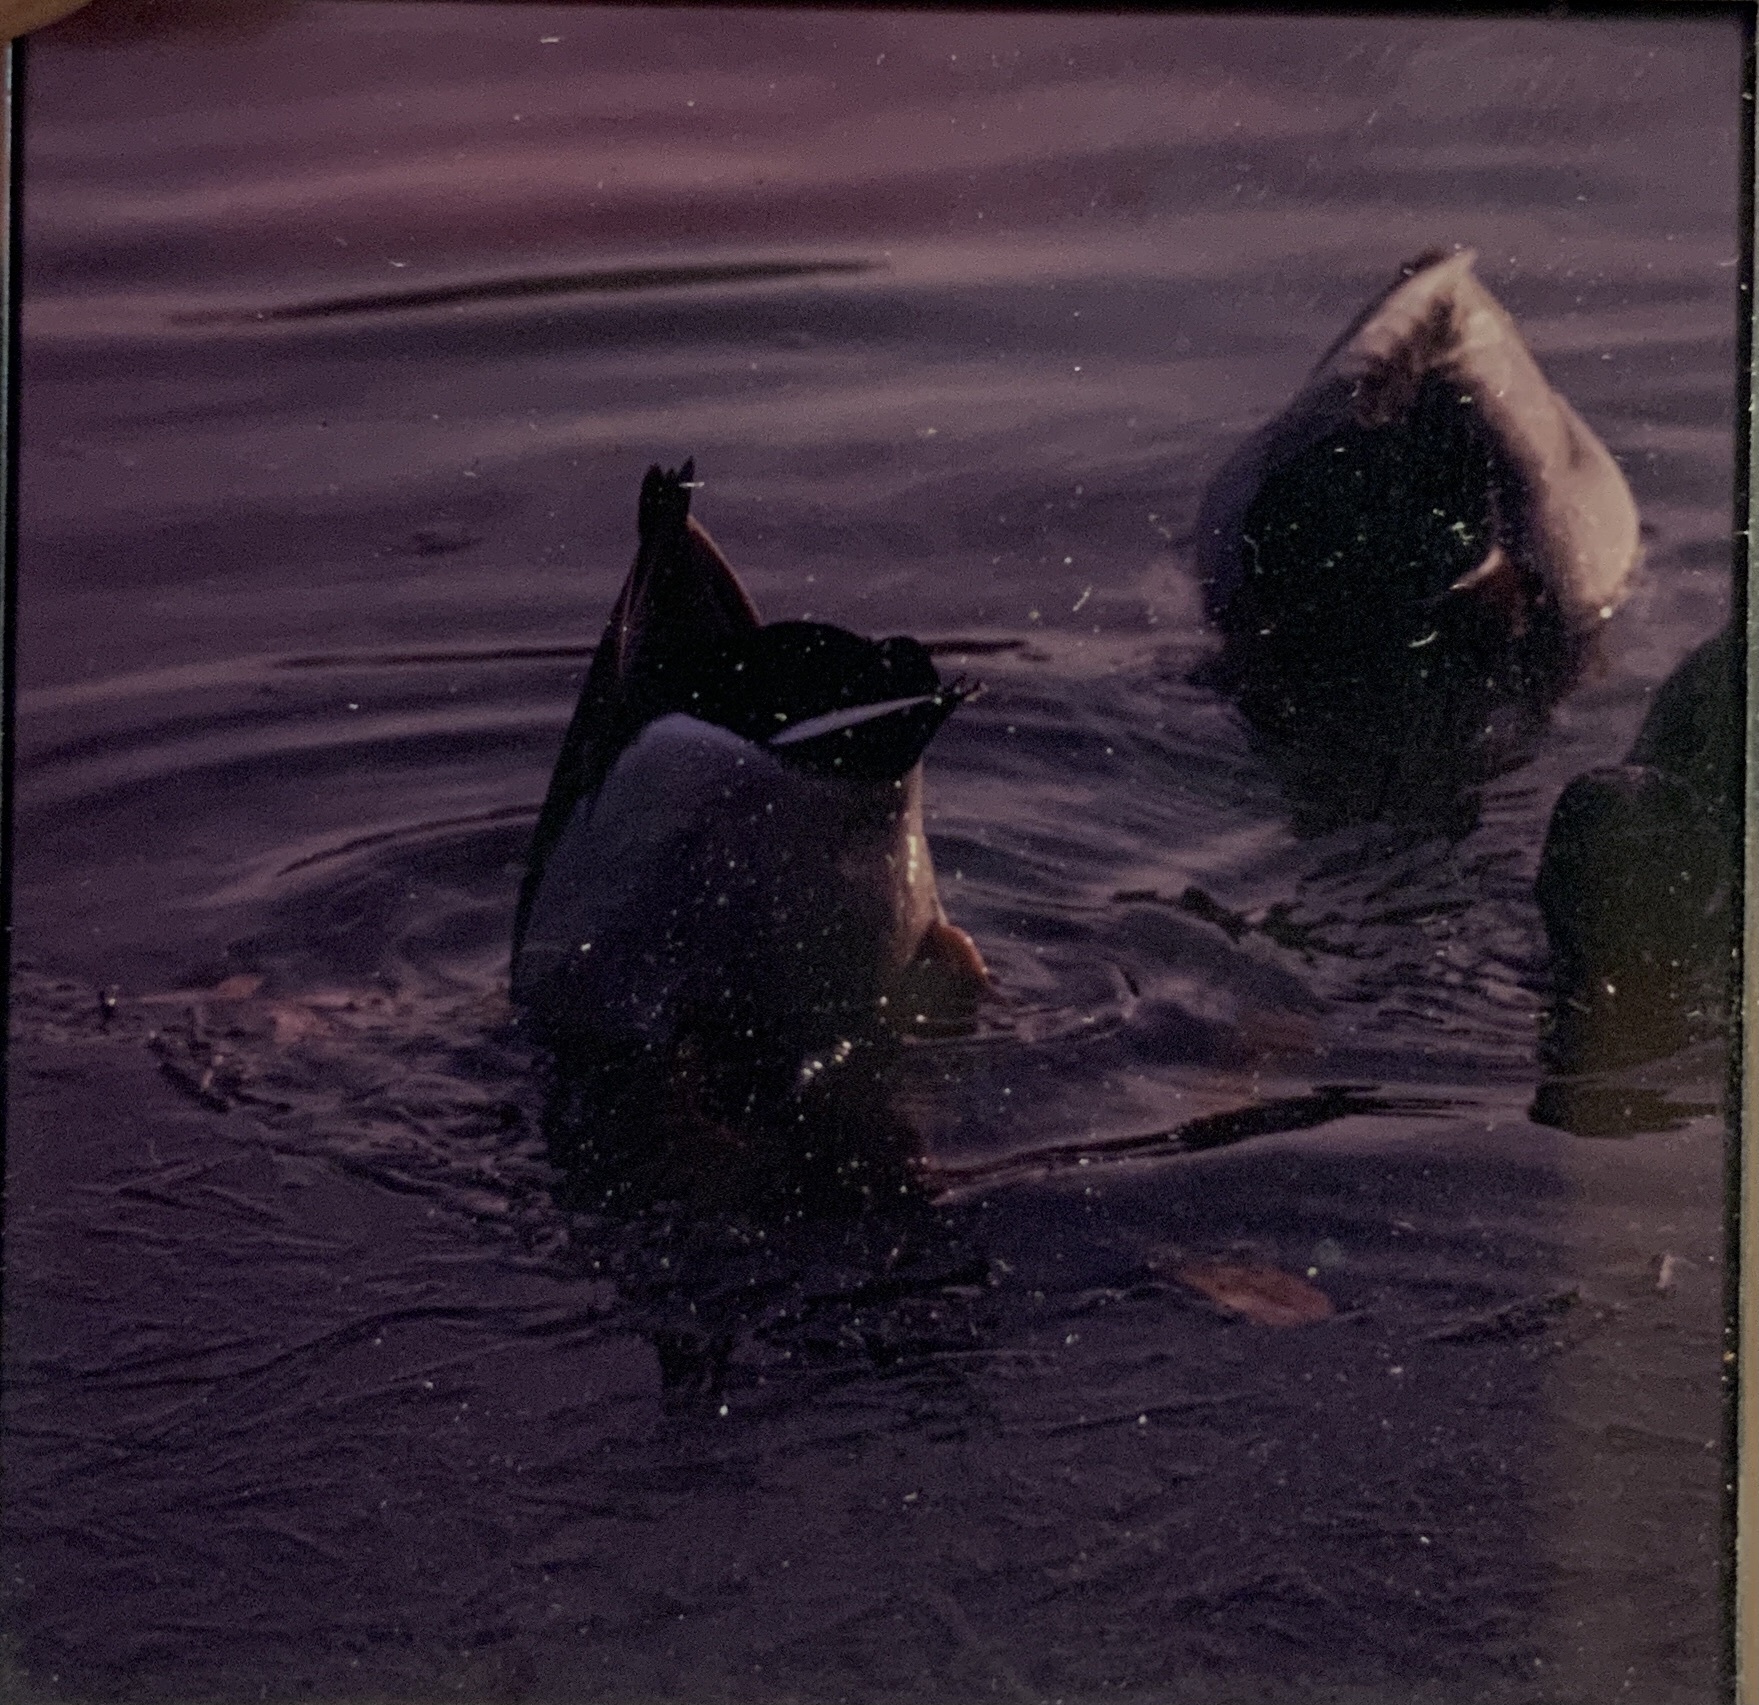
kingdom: Animalia
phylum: Chordata
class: Aves
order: Anseriformes
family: Anatidae
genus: Anas
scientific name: Anas platyrhynchos
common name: Mallard
